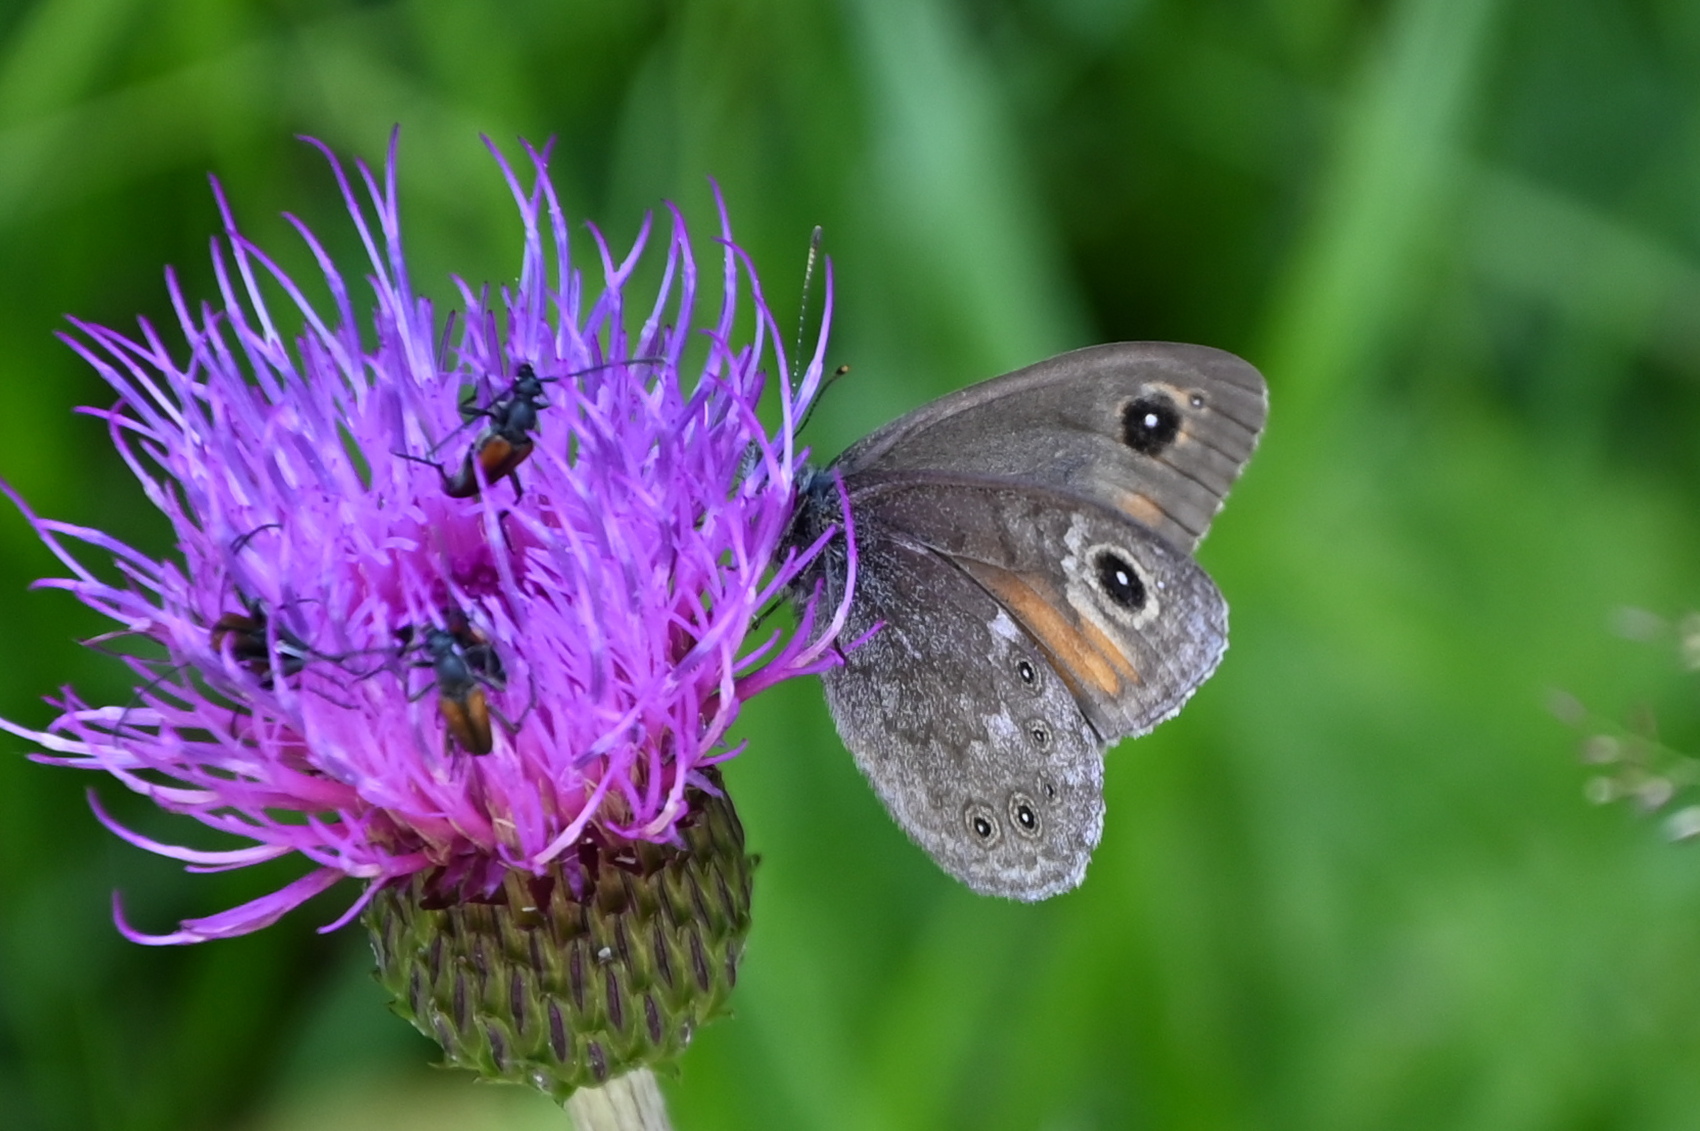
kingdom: Animalia
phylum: Arthropoda
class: Insecta
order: Lepidoptera
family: Nymphalidae
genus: Pararge
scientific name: Pararge Lasiommata maera
